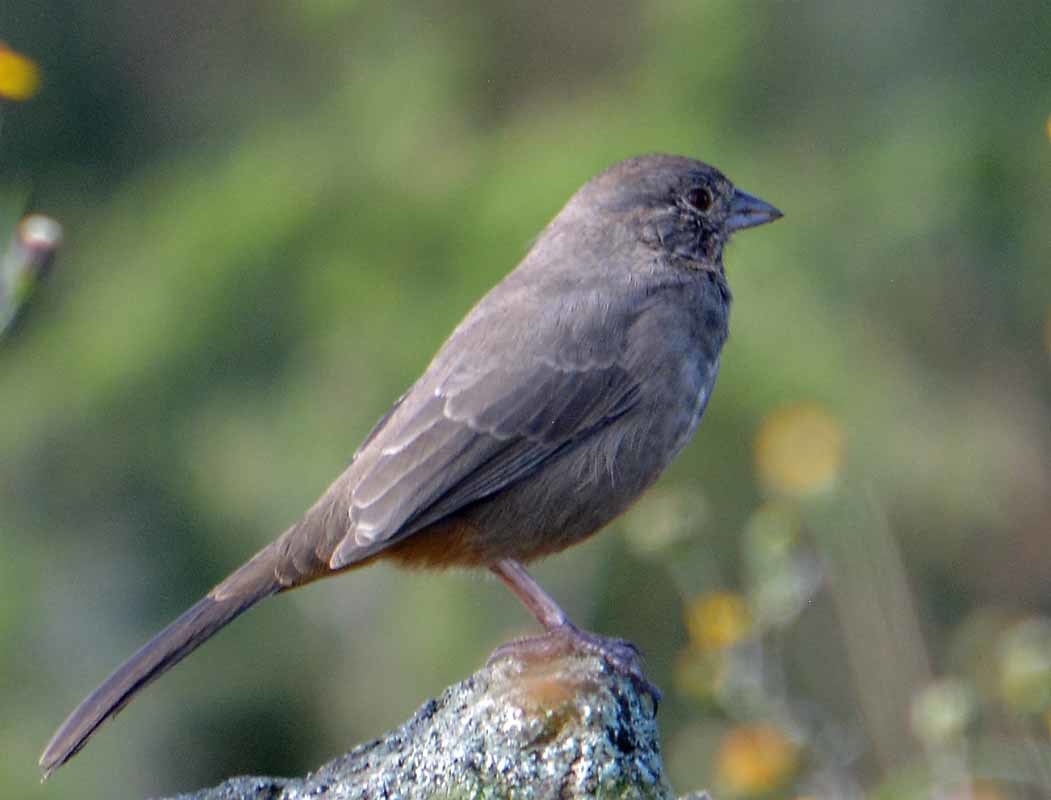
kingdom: Animalia
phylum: Chordata
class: Aves
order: Passeriformes
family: Passerellidae
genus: Melozone
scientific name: Melozone fusca
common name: Canyon towhee
